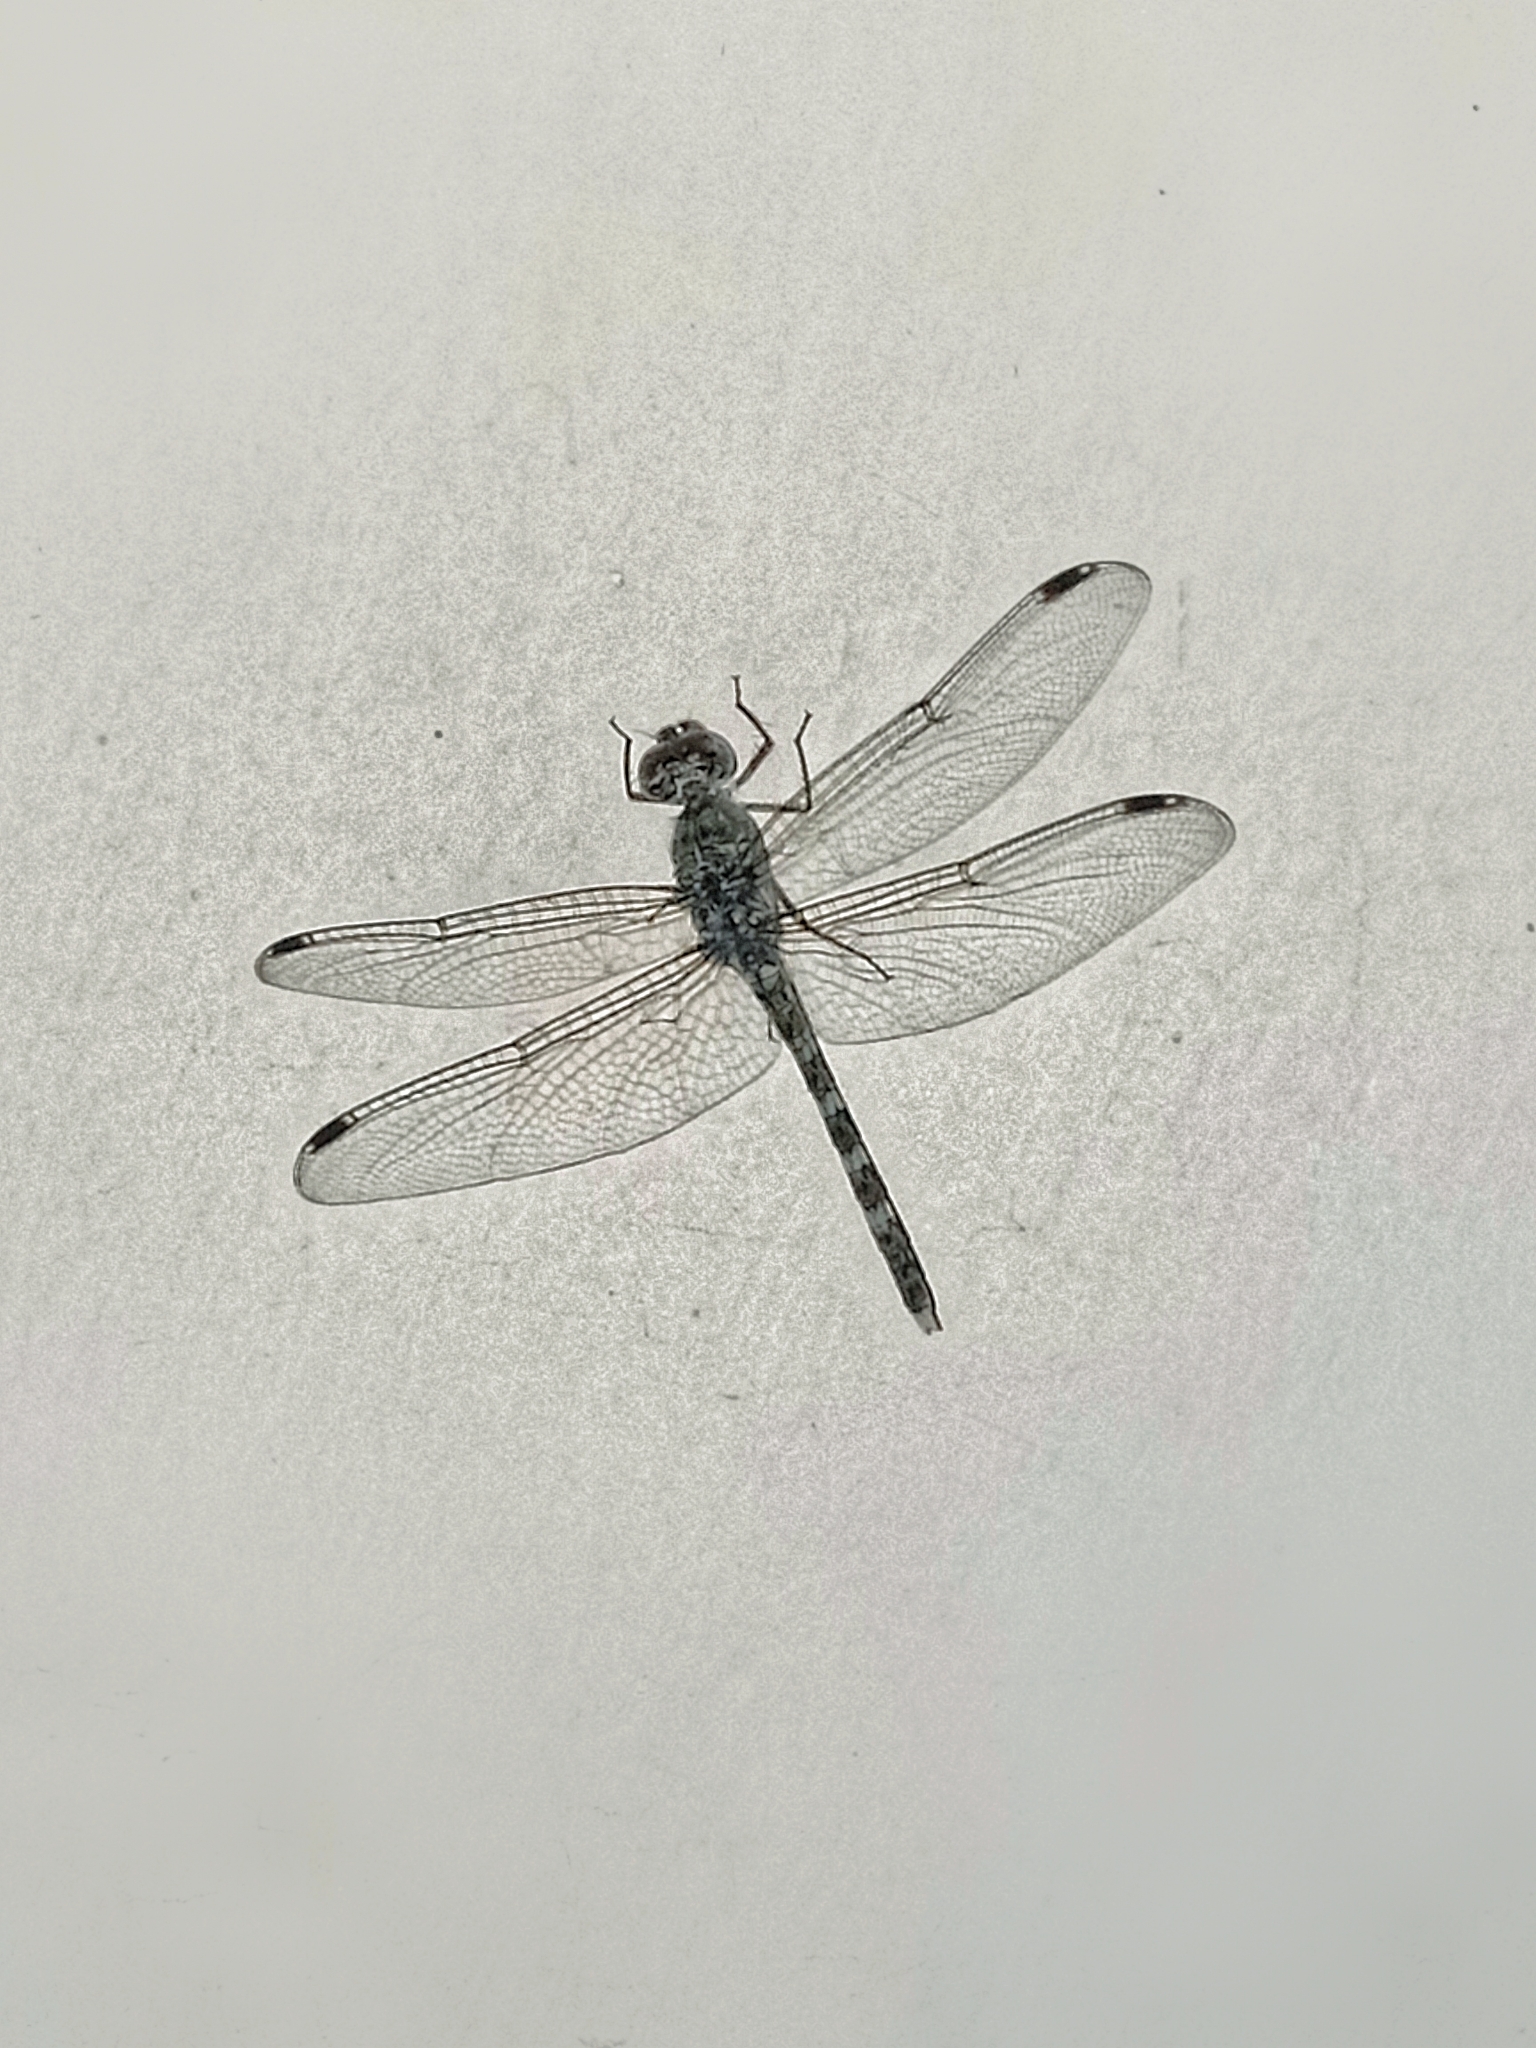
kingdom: Animalia
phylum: Arthropoda
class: Insecta
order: Odonata
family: Libellulidae
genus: Bradinopyga
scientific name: Bradinopyga geminata
